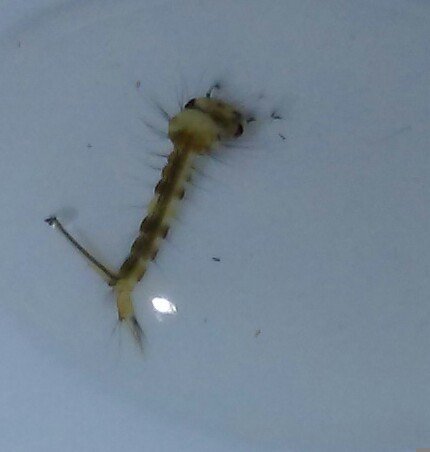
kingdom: Animalia
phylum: Arthropoda
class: Insecta
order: Diptera
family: Culicidae
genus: Culex
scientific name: Culex erraticus
